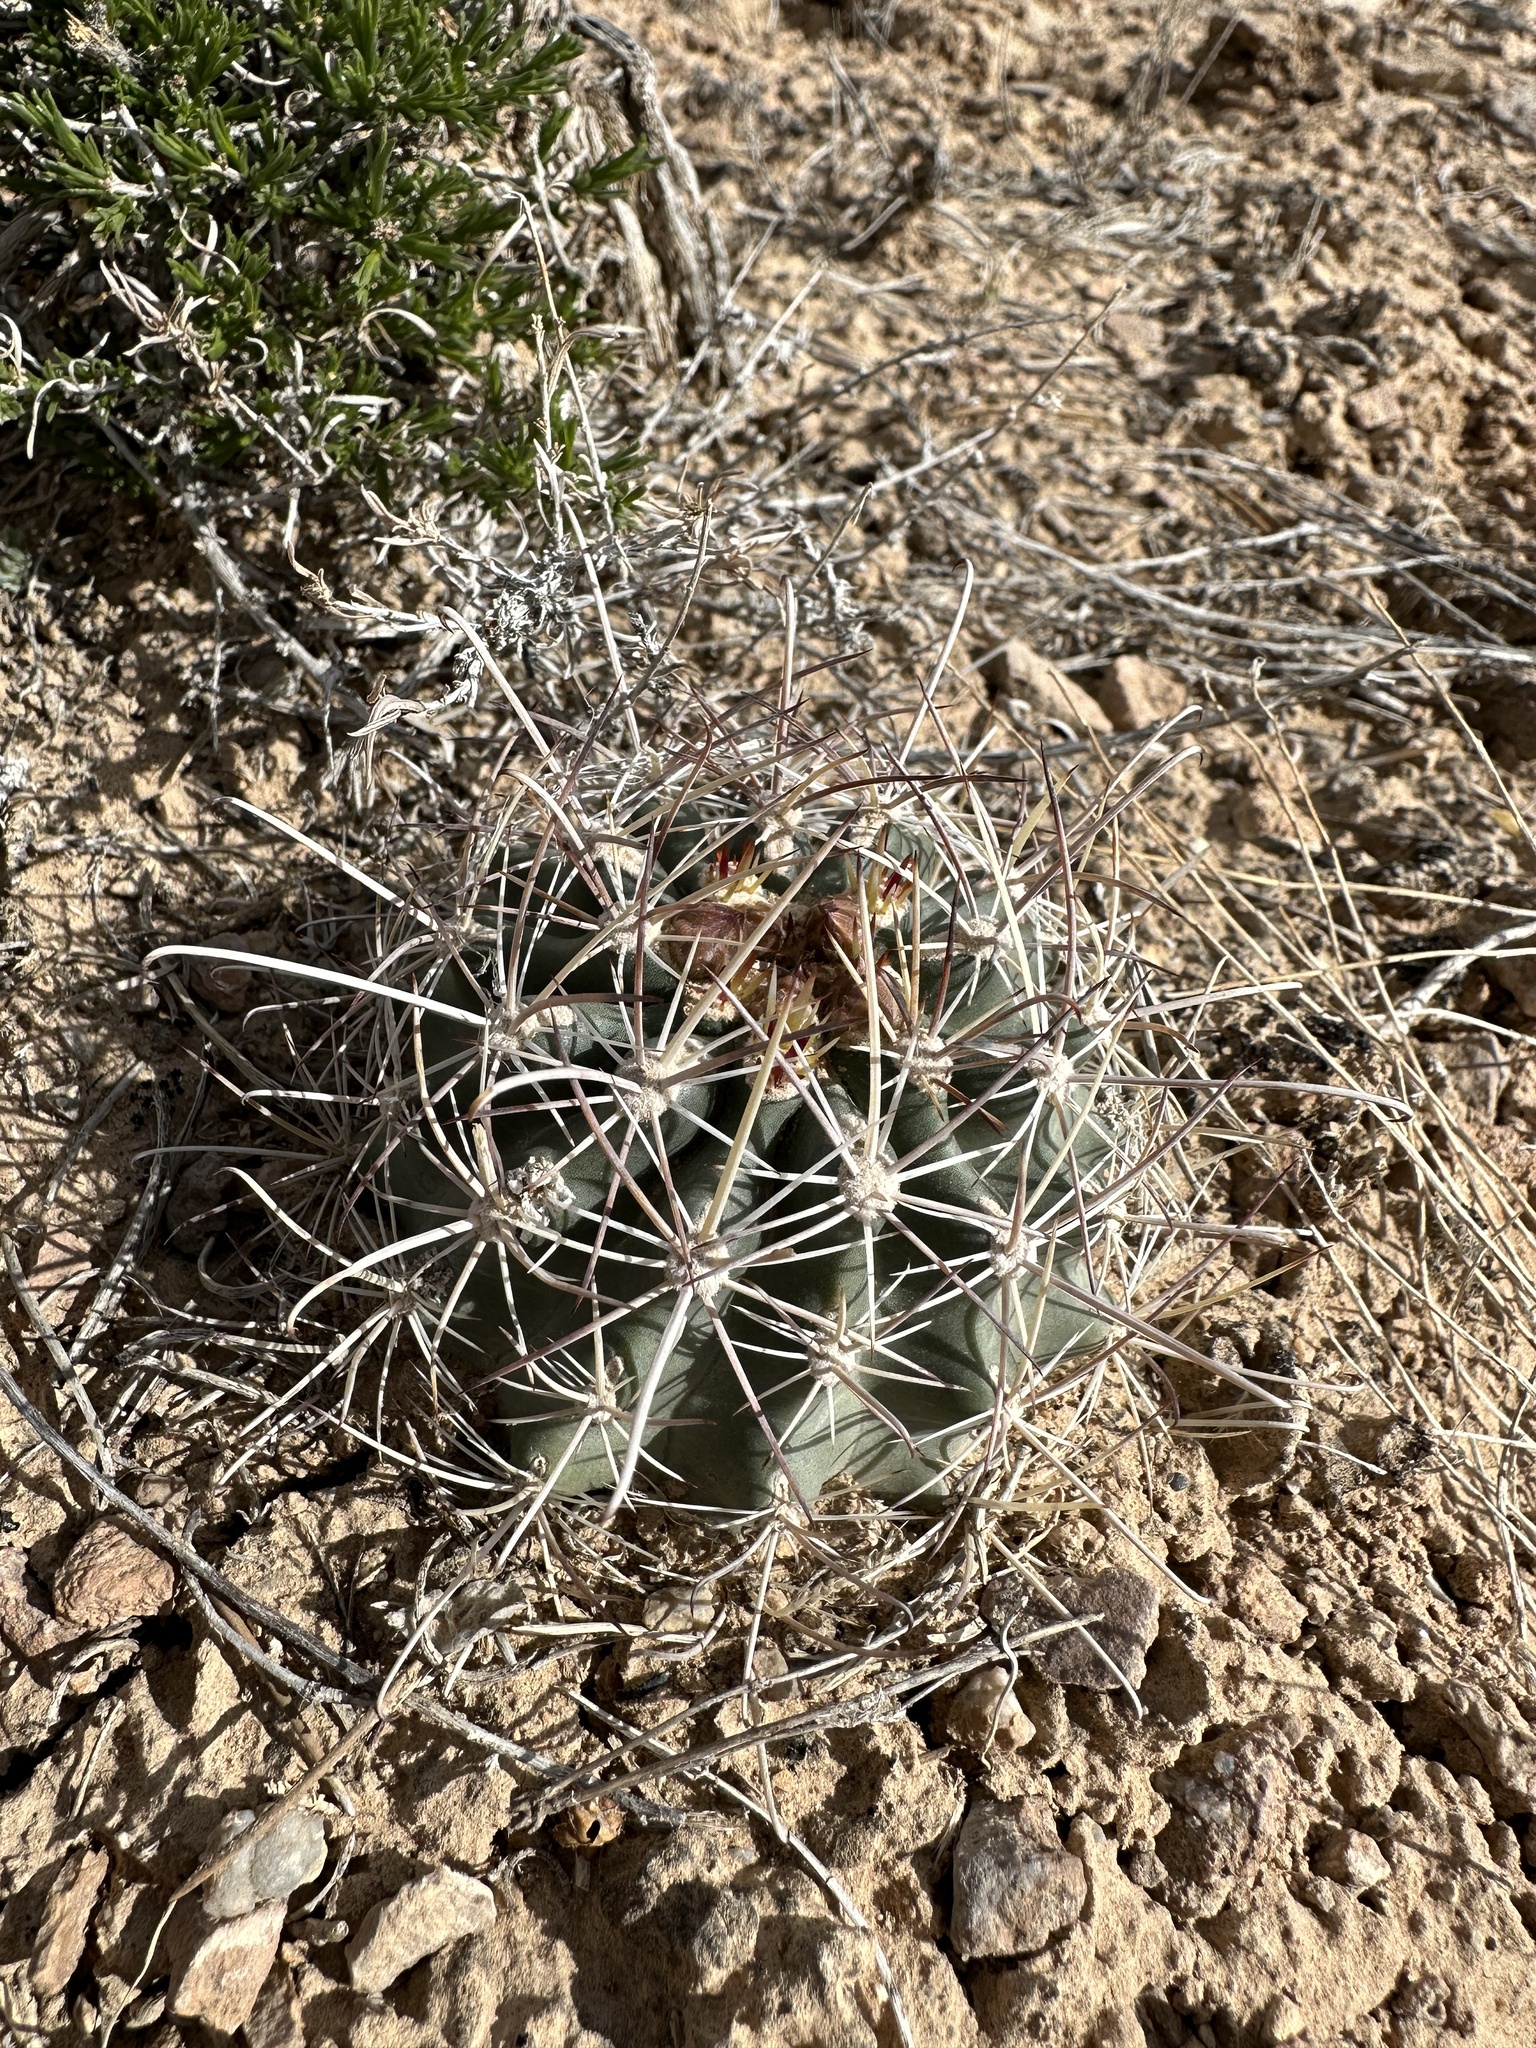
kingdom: Plantae
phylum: Tracheophyta
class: Magnoliopsida
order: Caryophyllales
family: Cactaceae
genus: Sclerocactus
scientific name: Sclerocactus parviflorus
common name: Small-flower fishhook cactus
